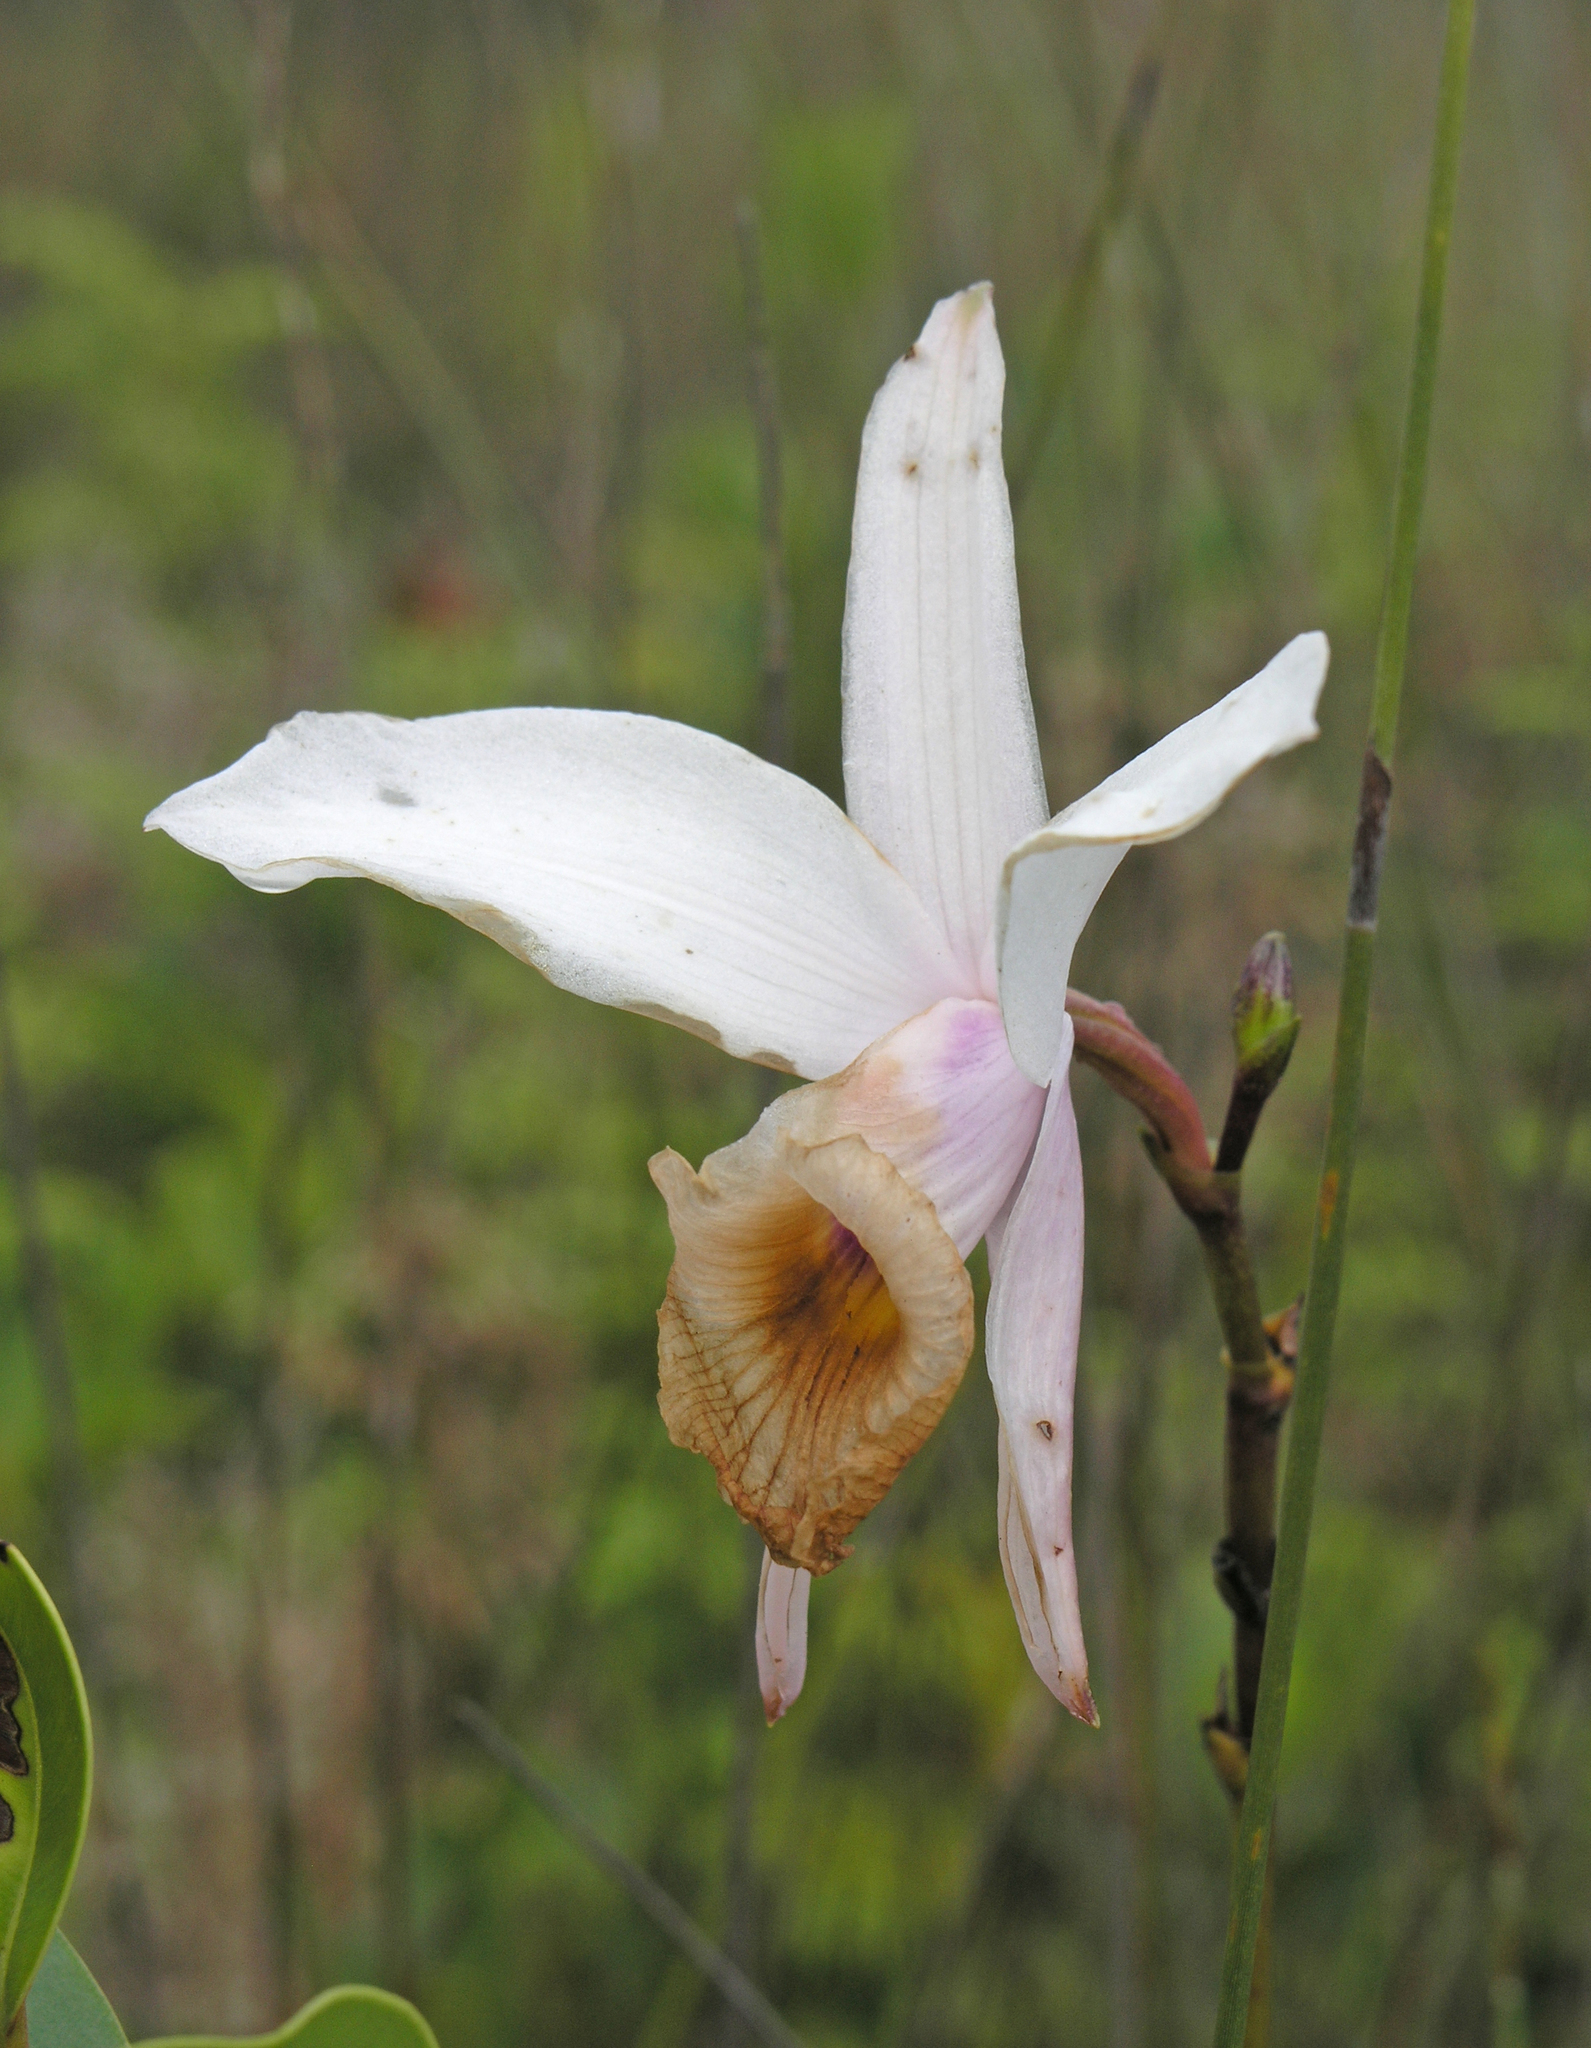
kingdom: Plantae
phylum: Tracheophyta
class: Liliopsida
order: Asparagales
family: Orchidaceae
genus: Arundina
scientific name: Arundina graminifolia
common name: Bamboo orchid
